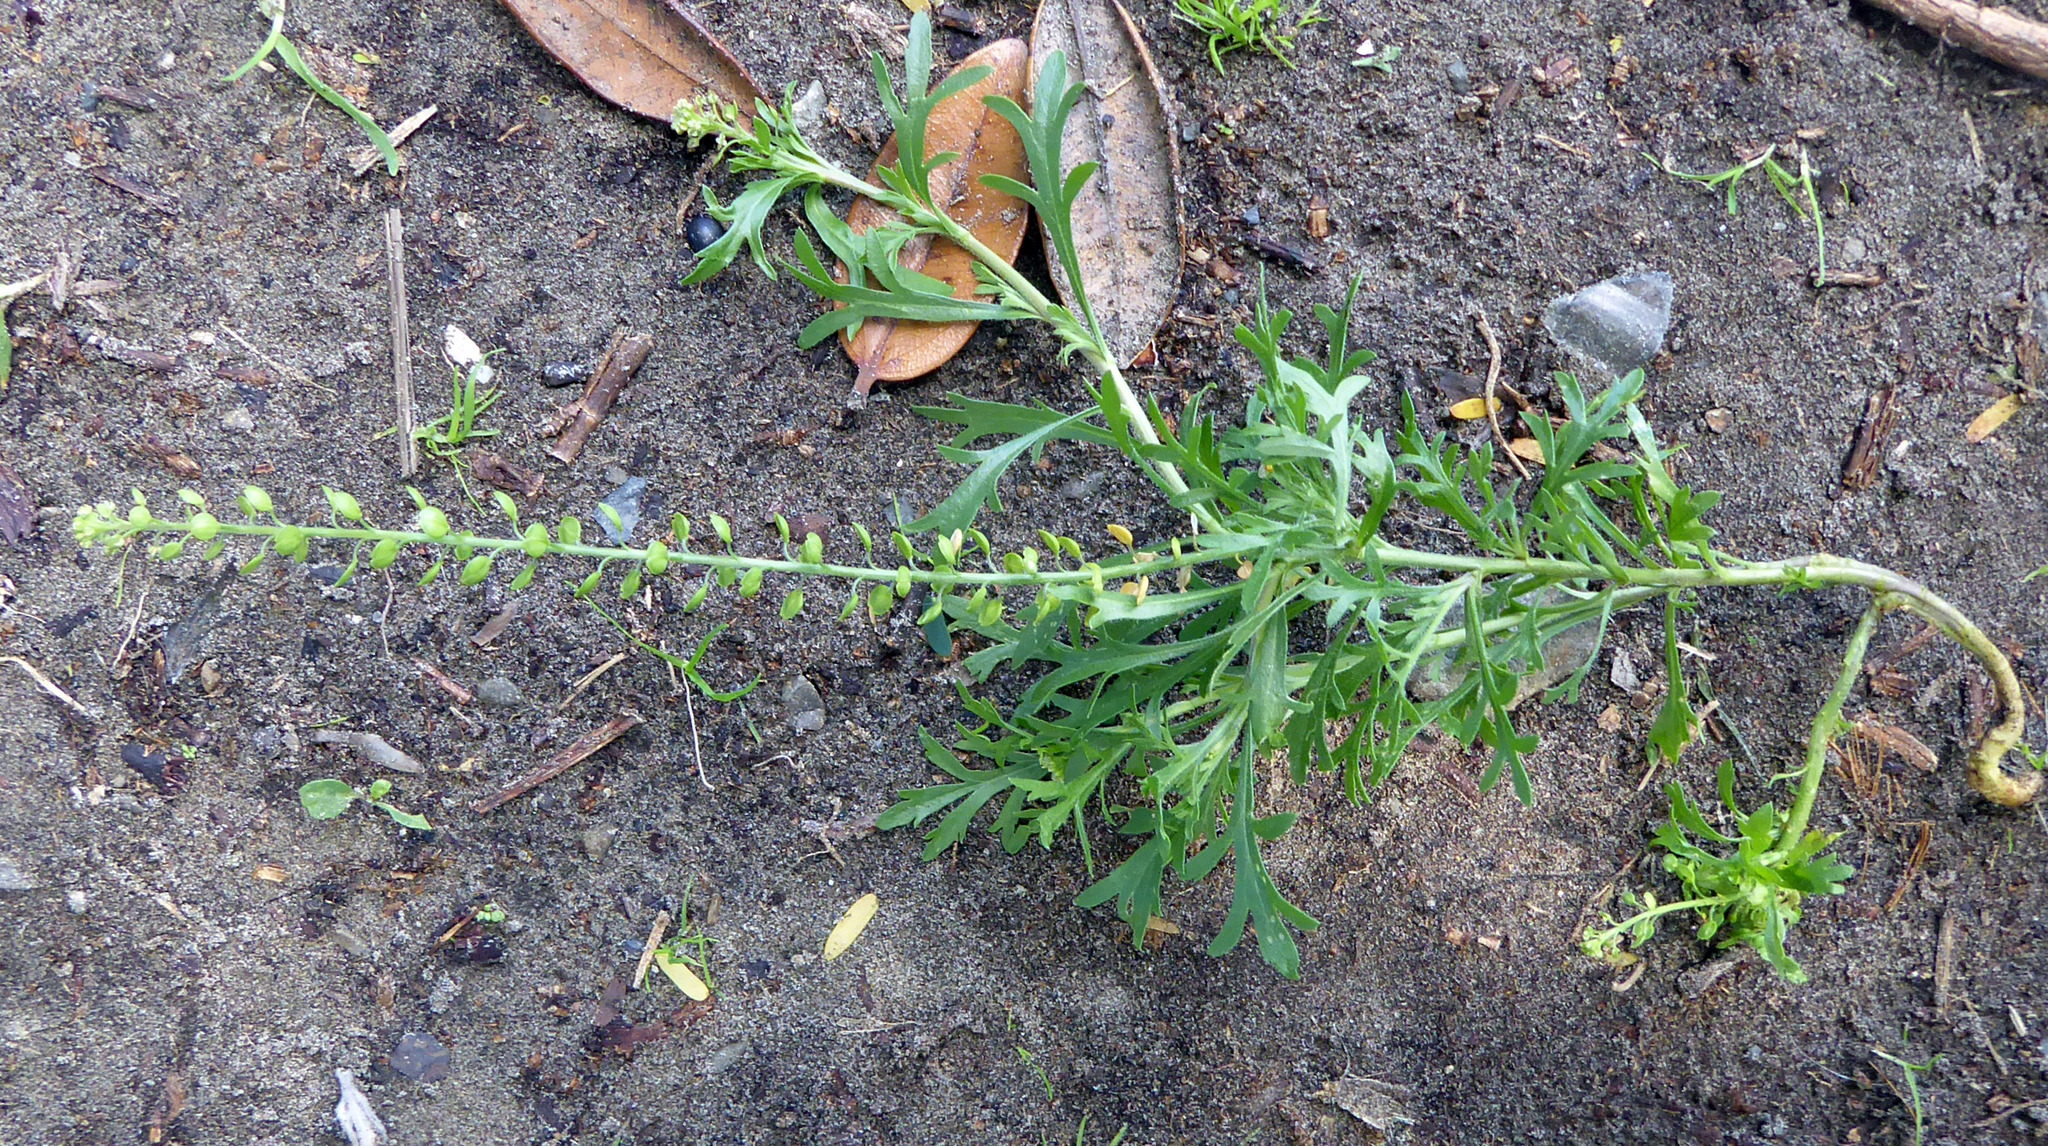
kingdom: Plantae
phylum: Tracheophyta
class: Magnoliopsida
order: Brassicales
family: Brassicaceae
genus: Lepidium
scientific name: Lepidium bonariense
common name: Argentine pepperwort
